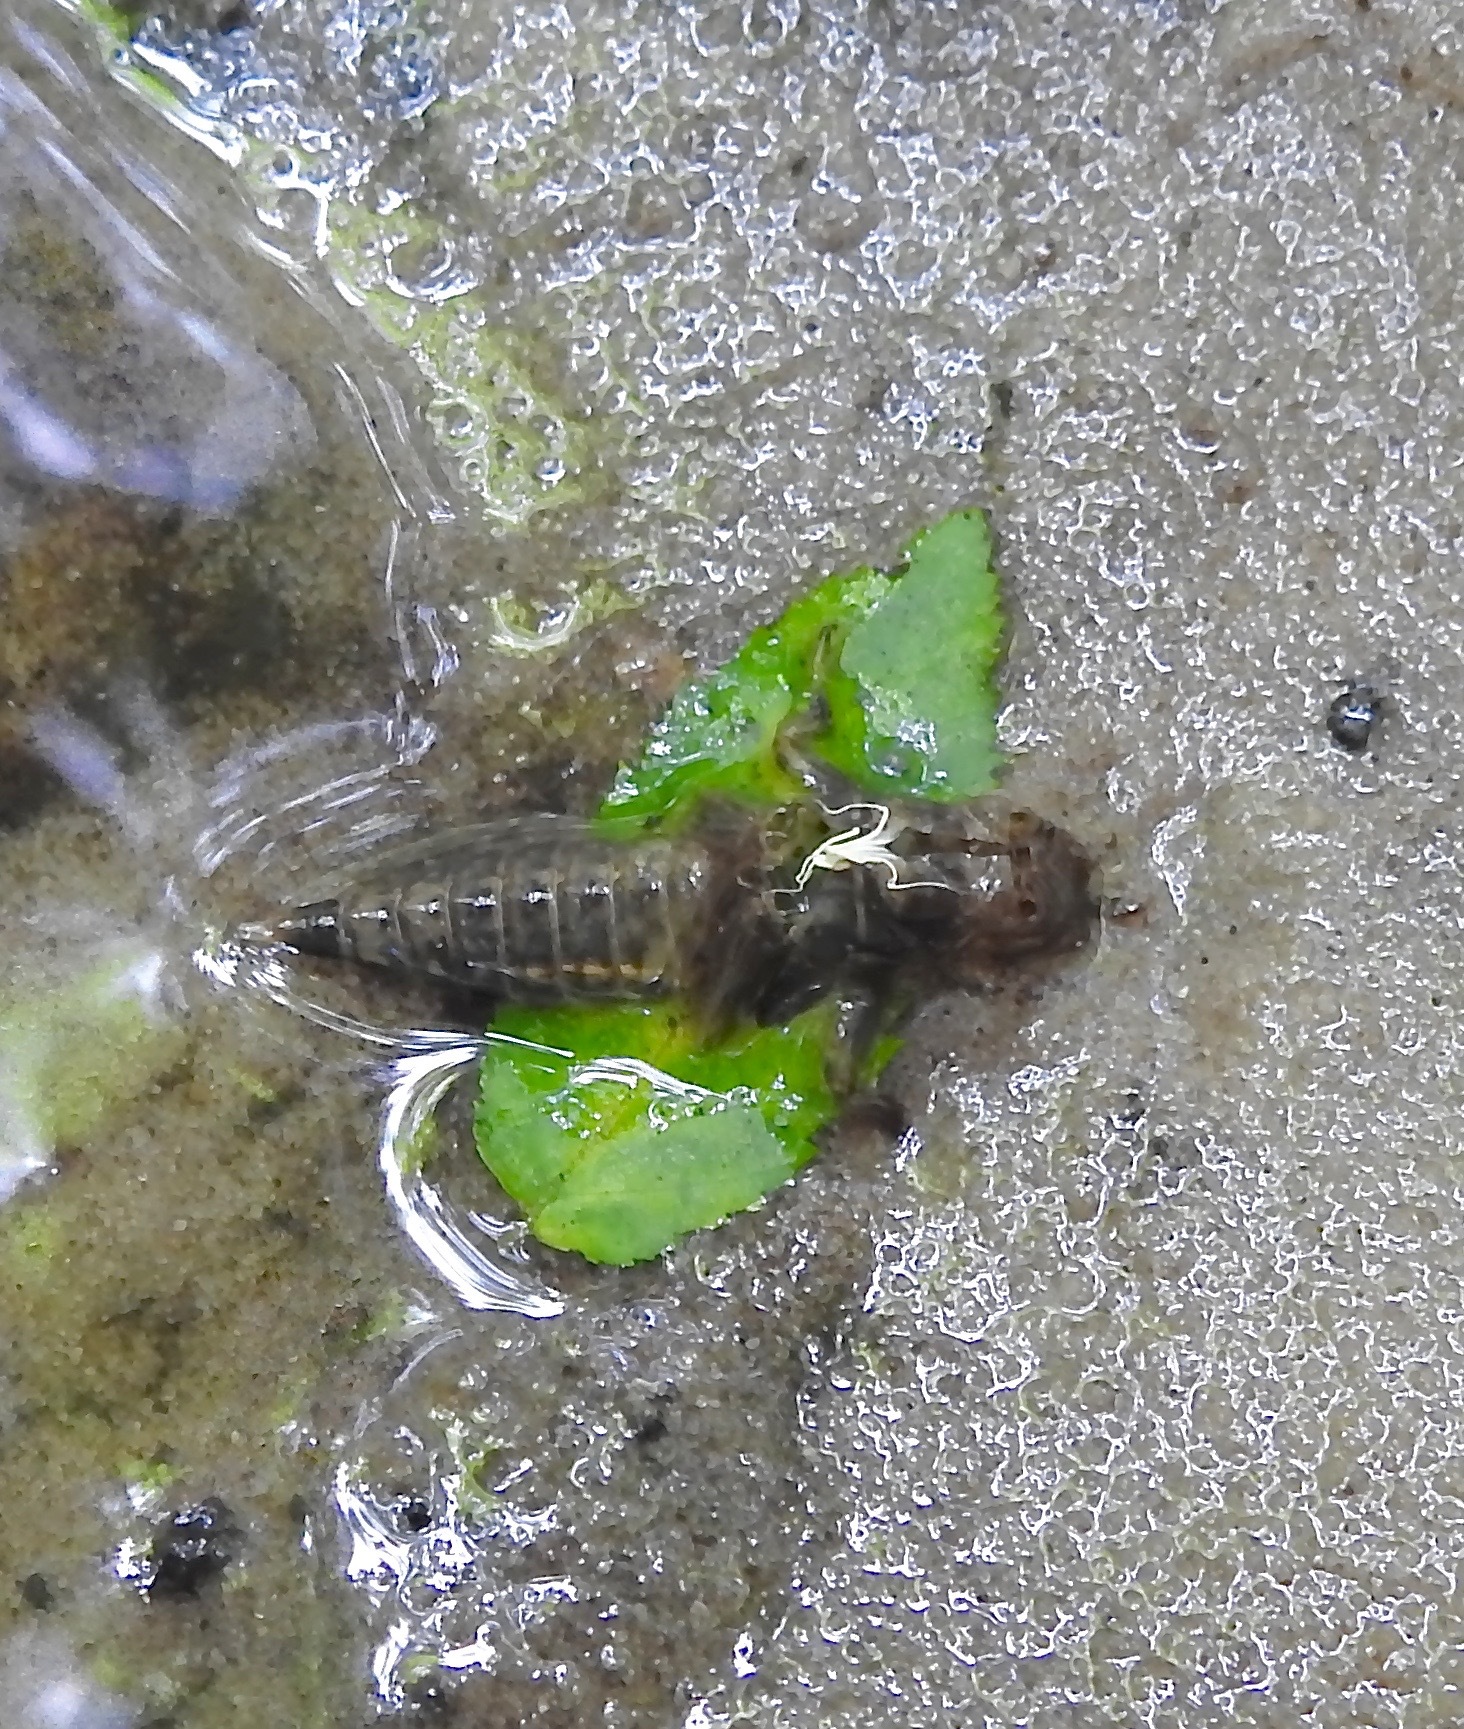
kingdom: Animalia
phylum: Arthropoda
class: Insecta
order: Odonata
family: Gomphidae
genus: Progomphus
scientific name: Progomphus obscurus
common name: Common sanddragon
